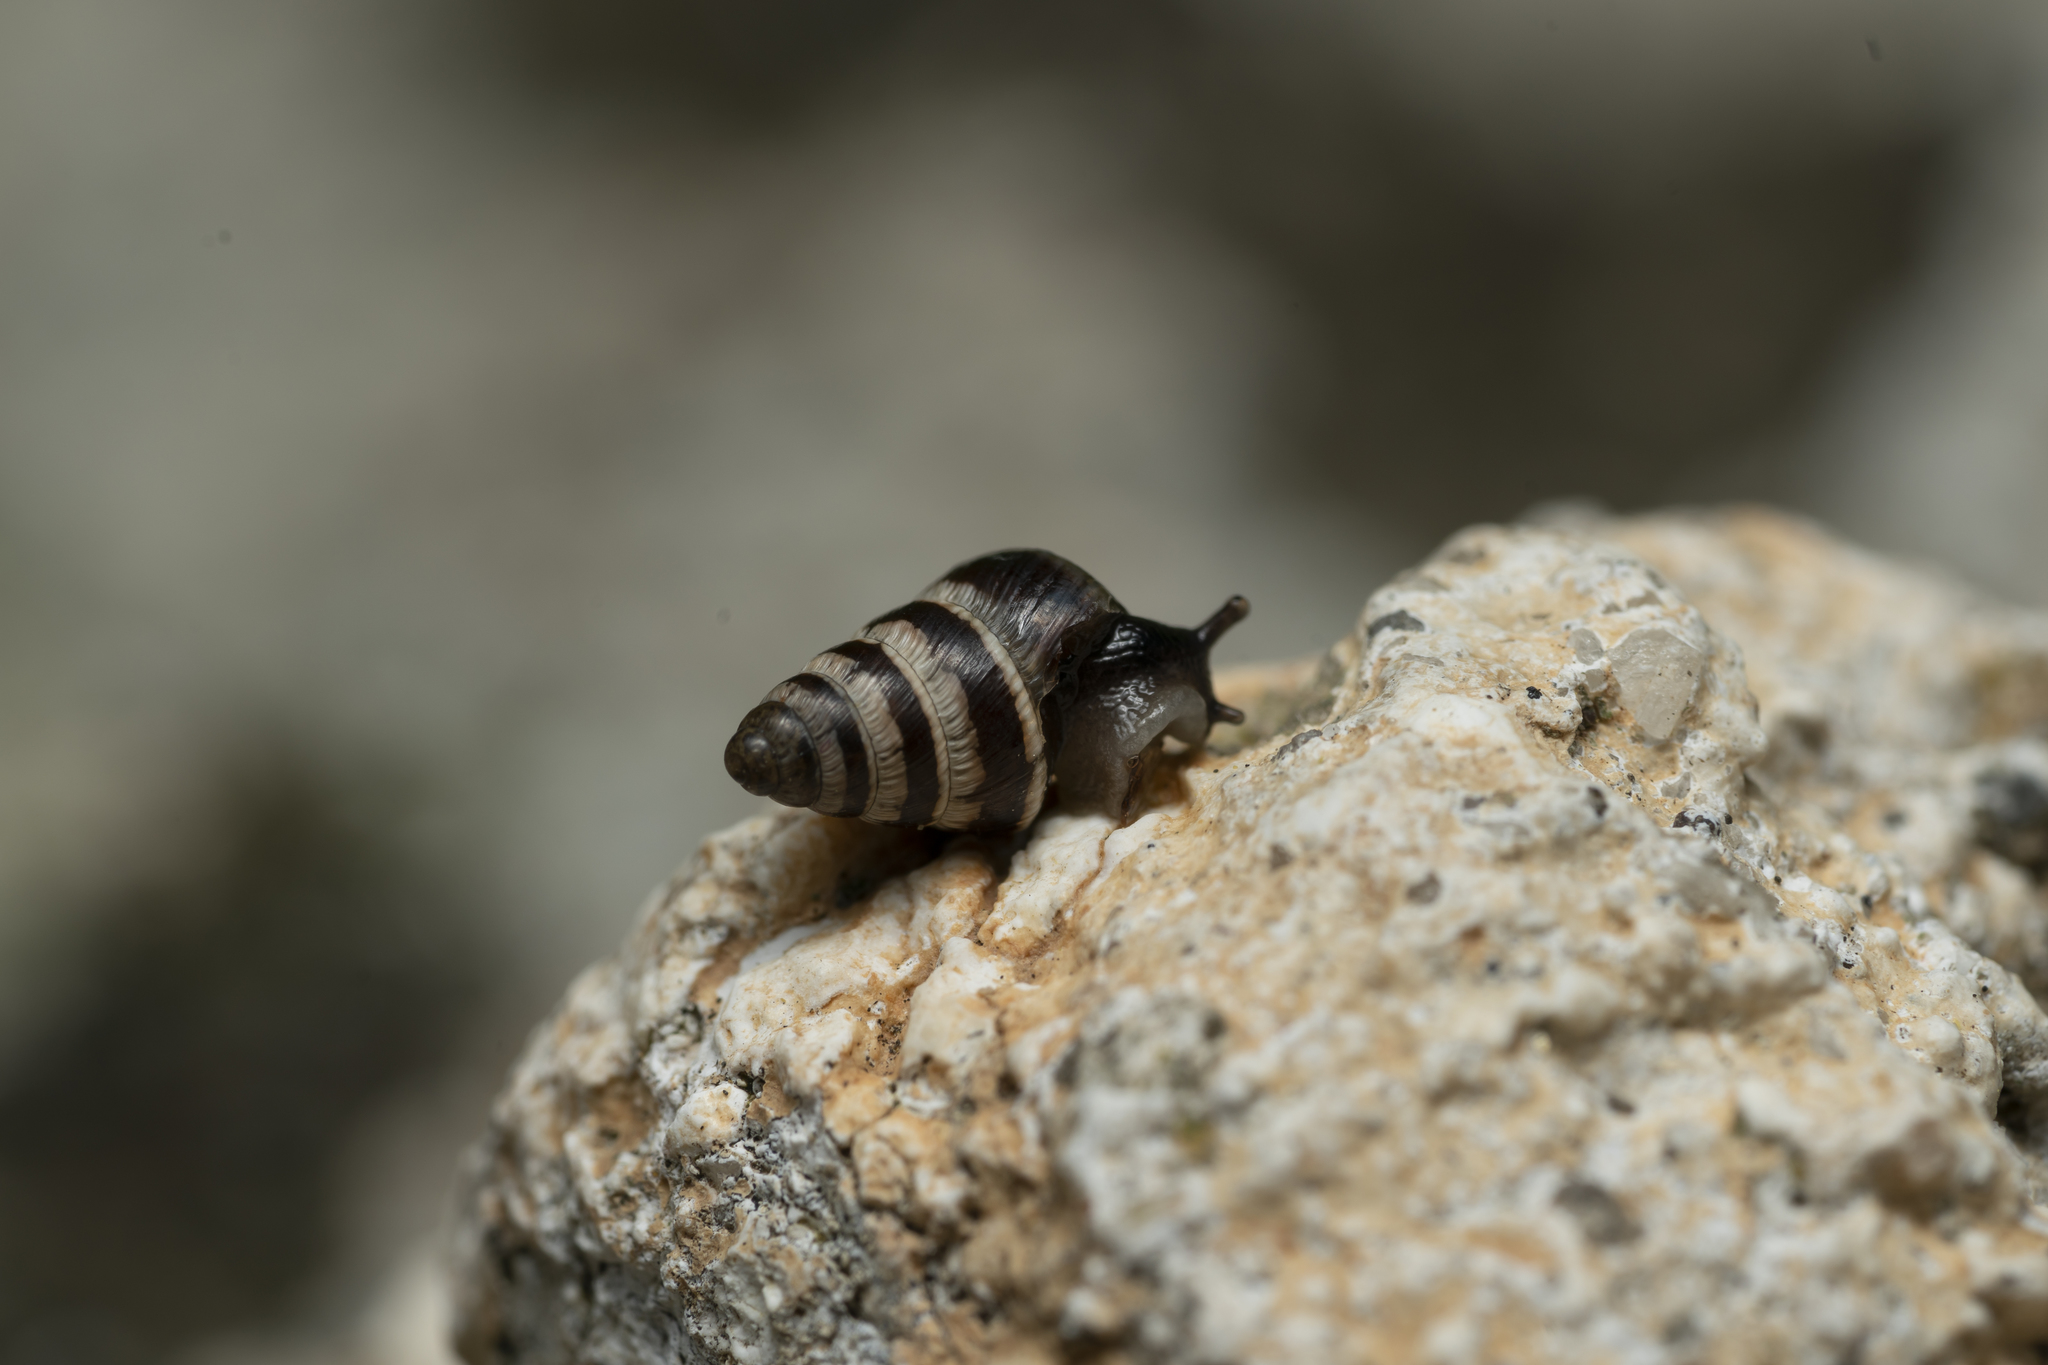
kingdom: Animalia
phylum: Mollusca
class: Gastropoda
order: Stylommatophora
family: Geomitridae
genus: Cochlicella
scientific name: Cochlicella barbara
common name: Potbellied helicellid
